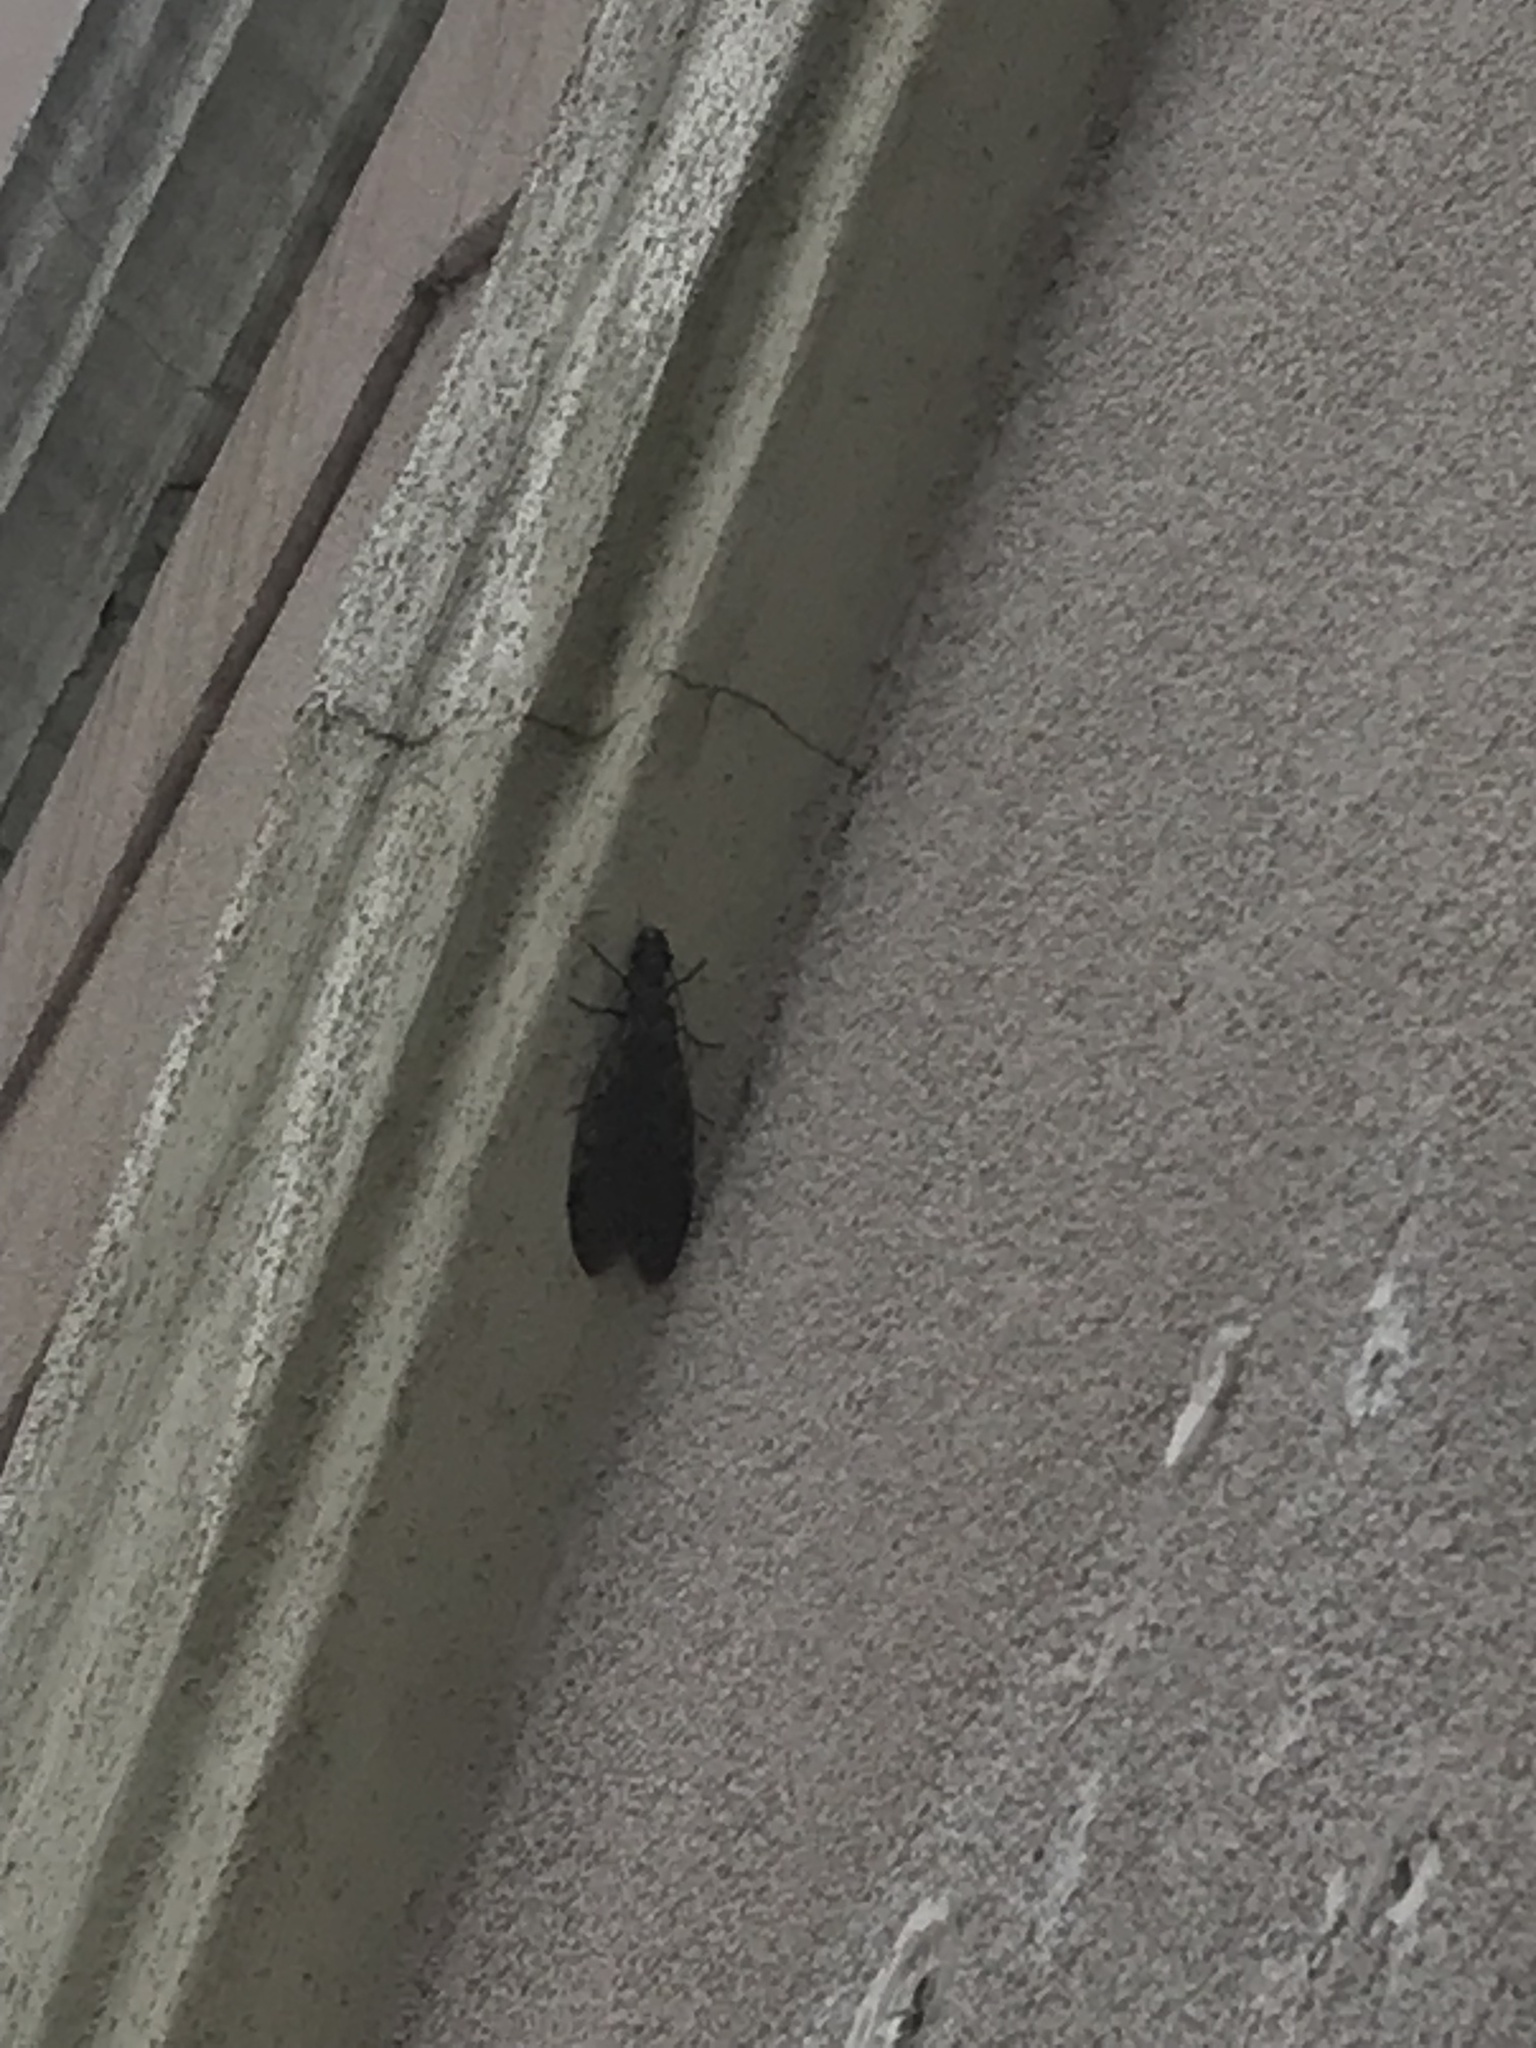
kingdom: Animalia
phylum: Arthropoda
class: Insecta
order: Megaloptera
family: Corydalidae
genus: Corydalus
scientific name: Corydalus cornutus
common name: Dobsonfly
